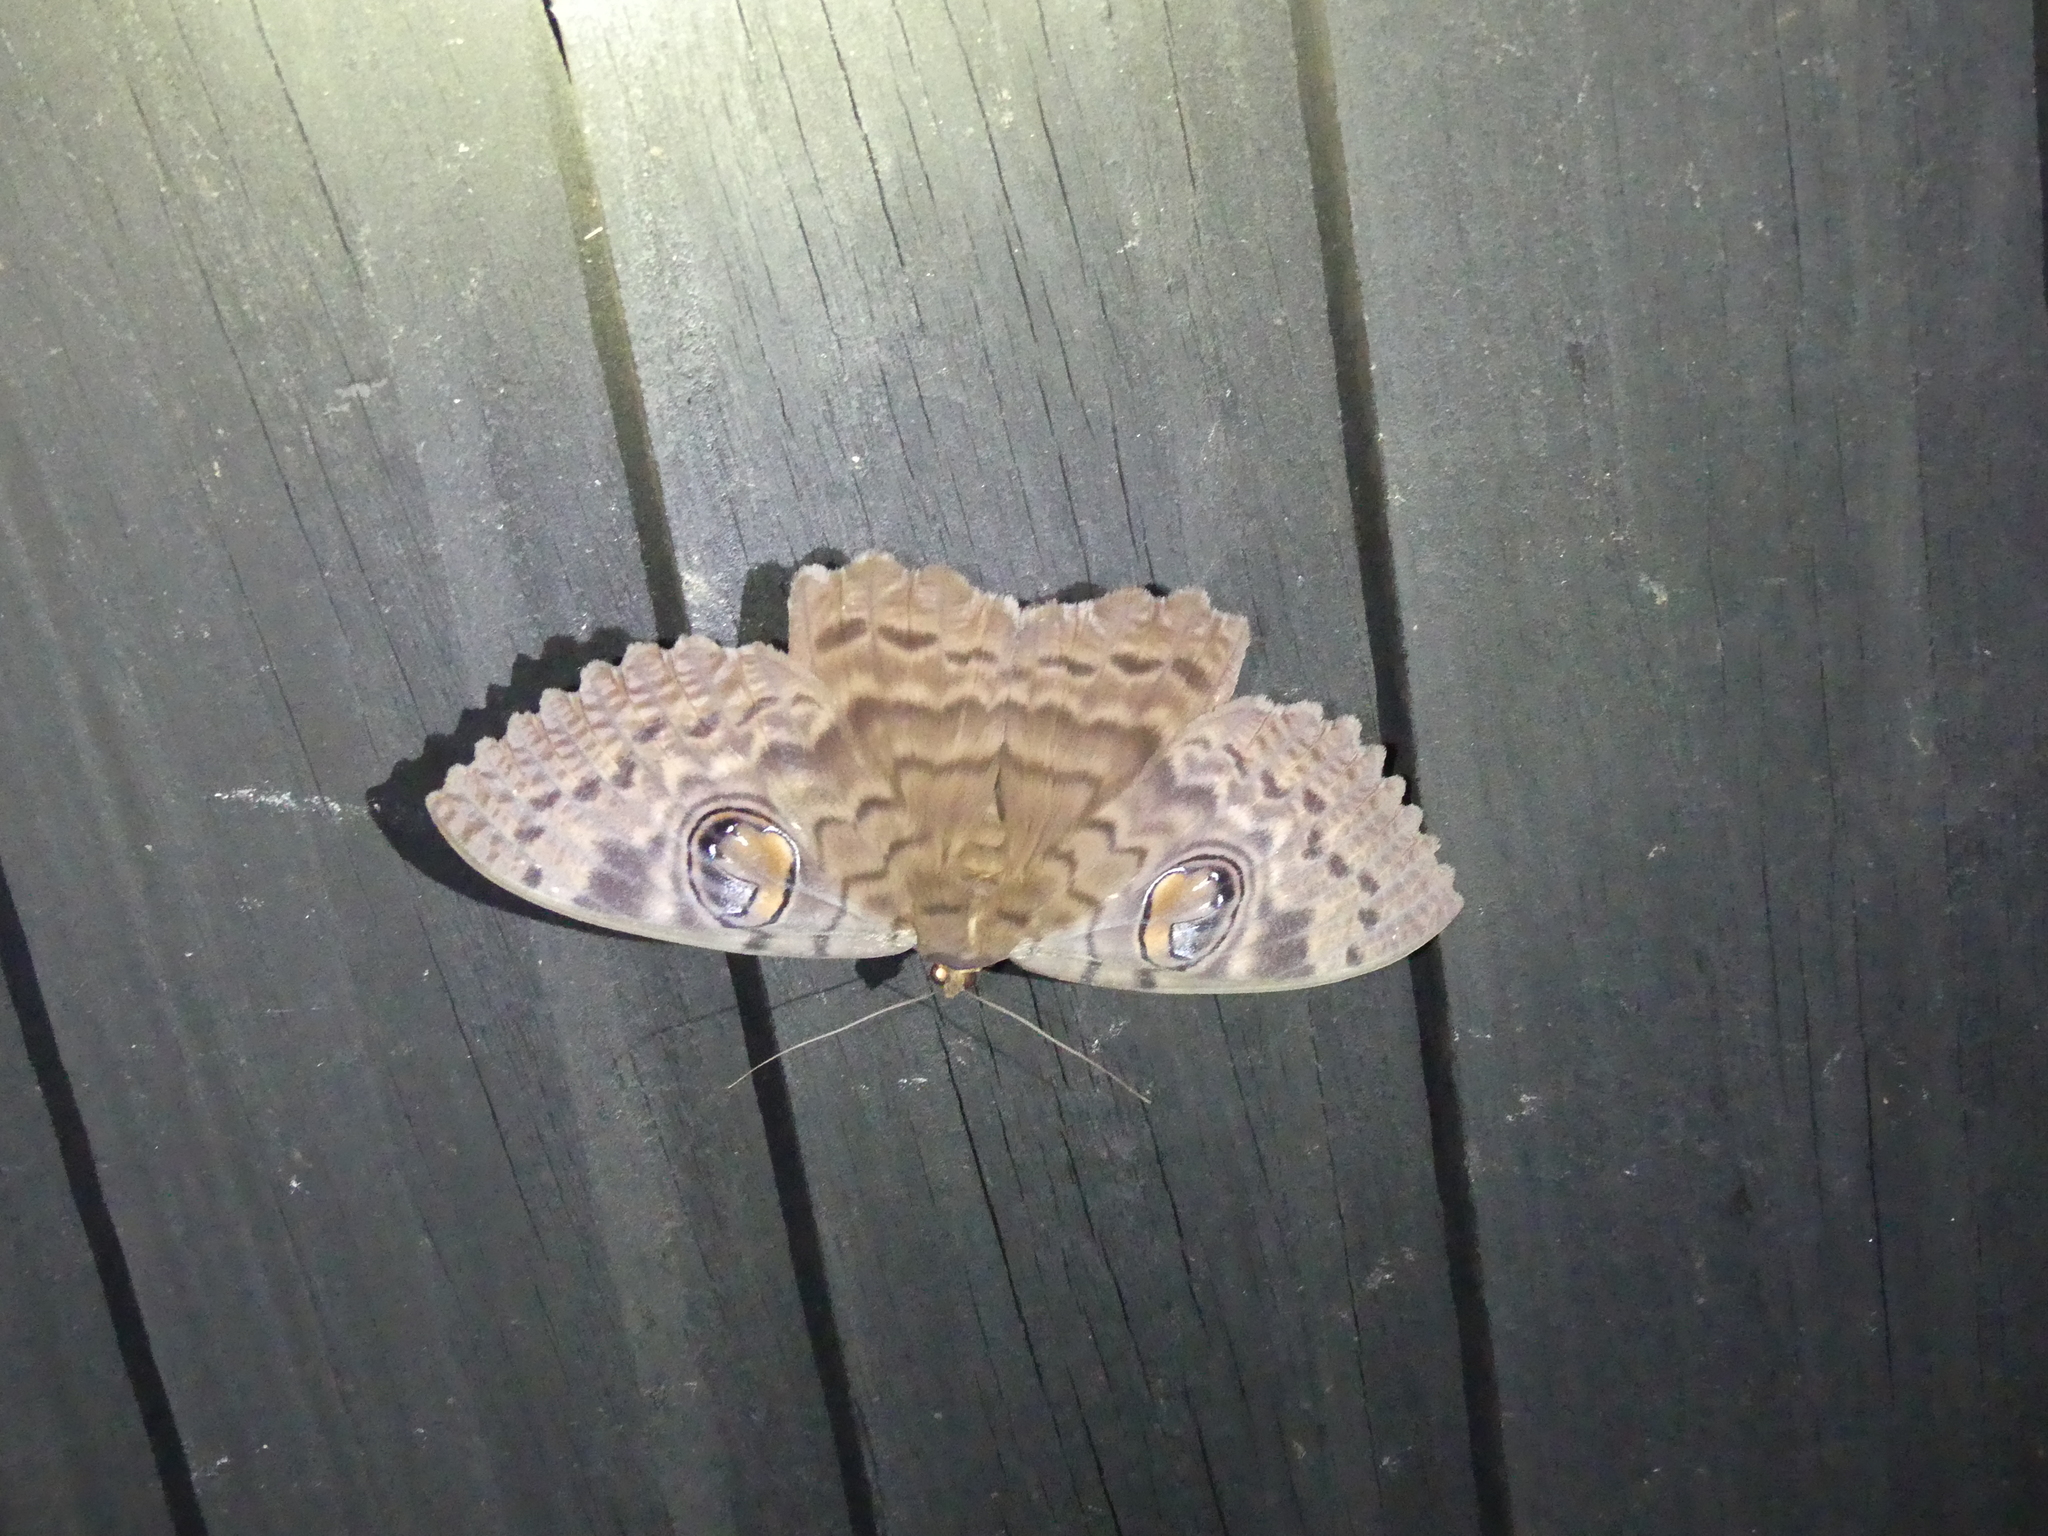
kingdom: Animalia
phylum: Arthropoda
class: Insecta
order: Lepidoptera
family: Erebidae
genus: Erebus
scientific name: Erebus walkeri
